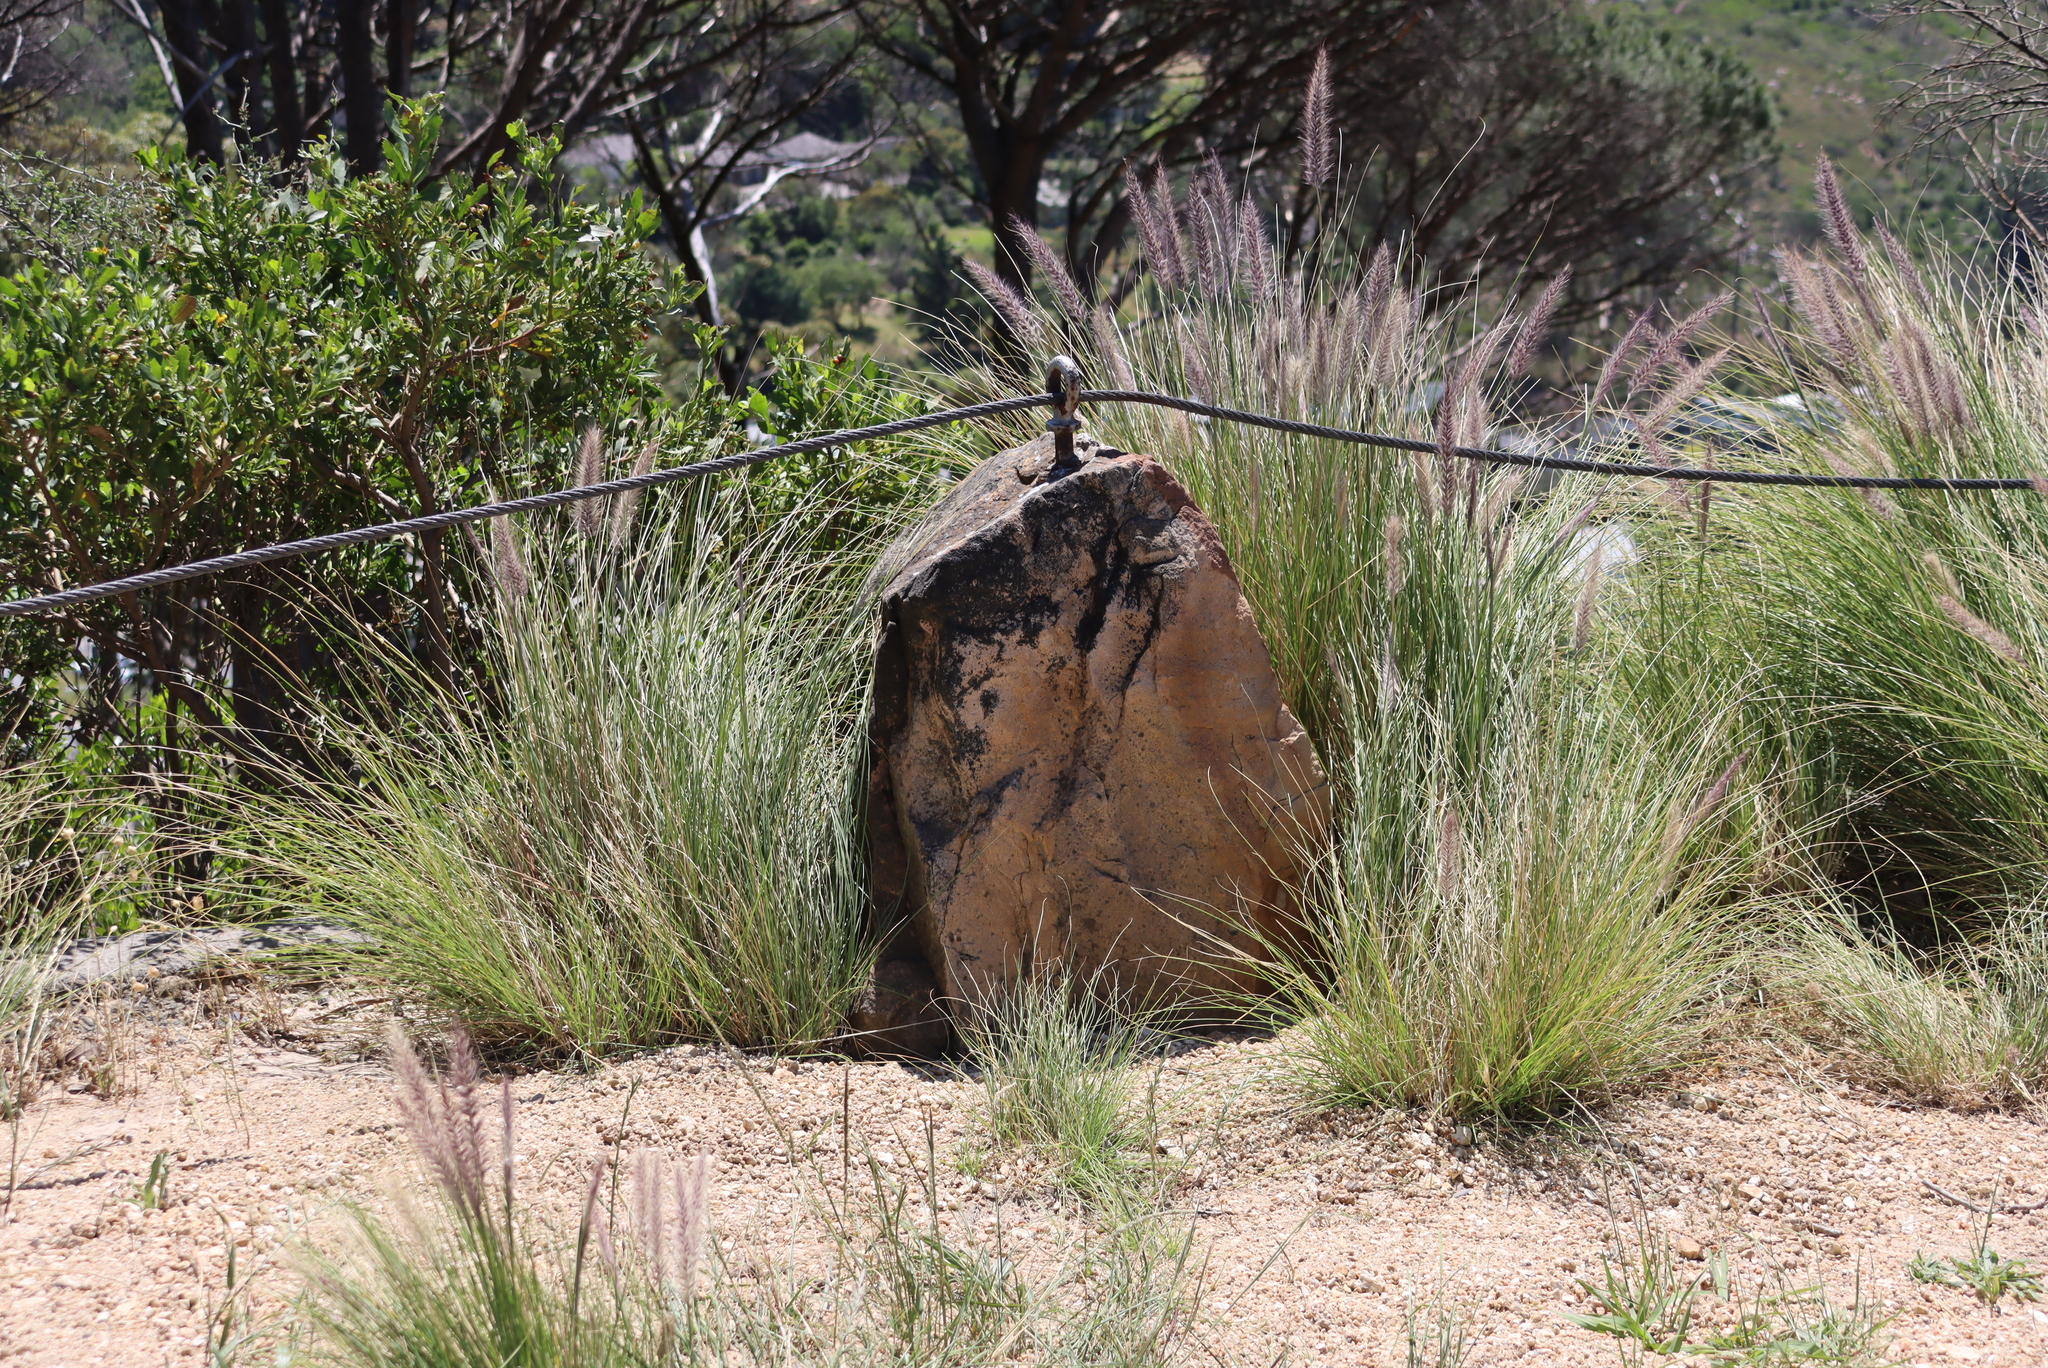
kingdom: Plantae
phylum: Tracheophyta
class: Liliopsida
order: Poales
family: Poaceae
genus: Cenchrus
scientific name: Cenchrus setaceus
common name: Crimson fountaingrass
